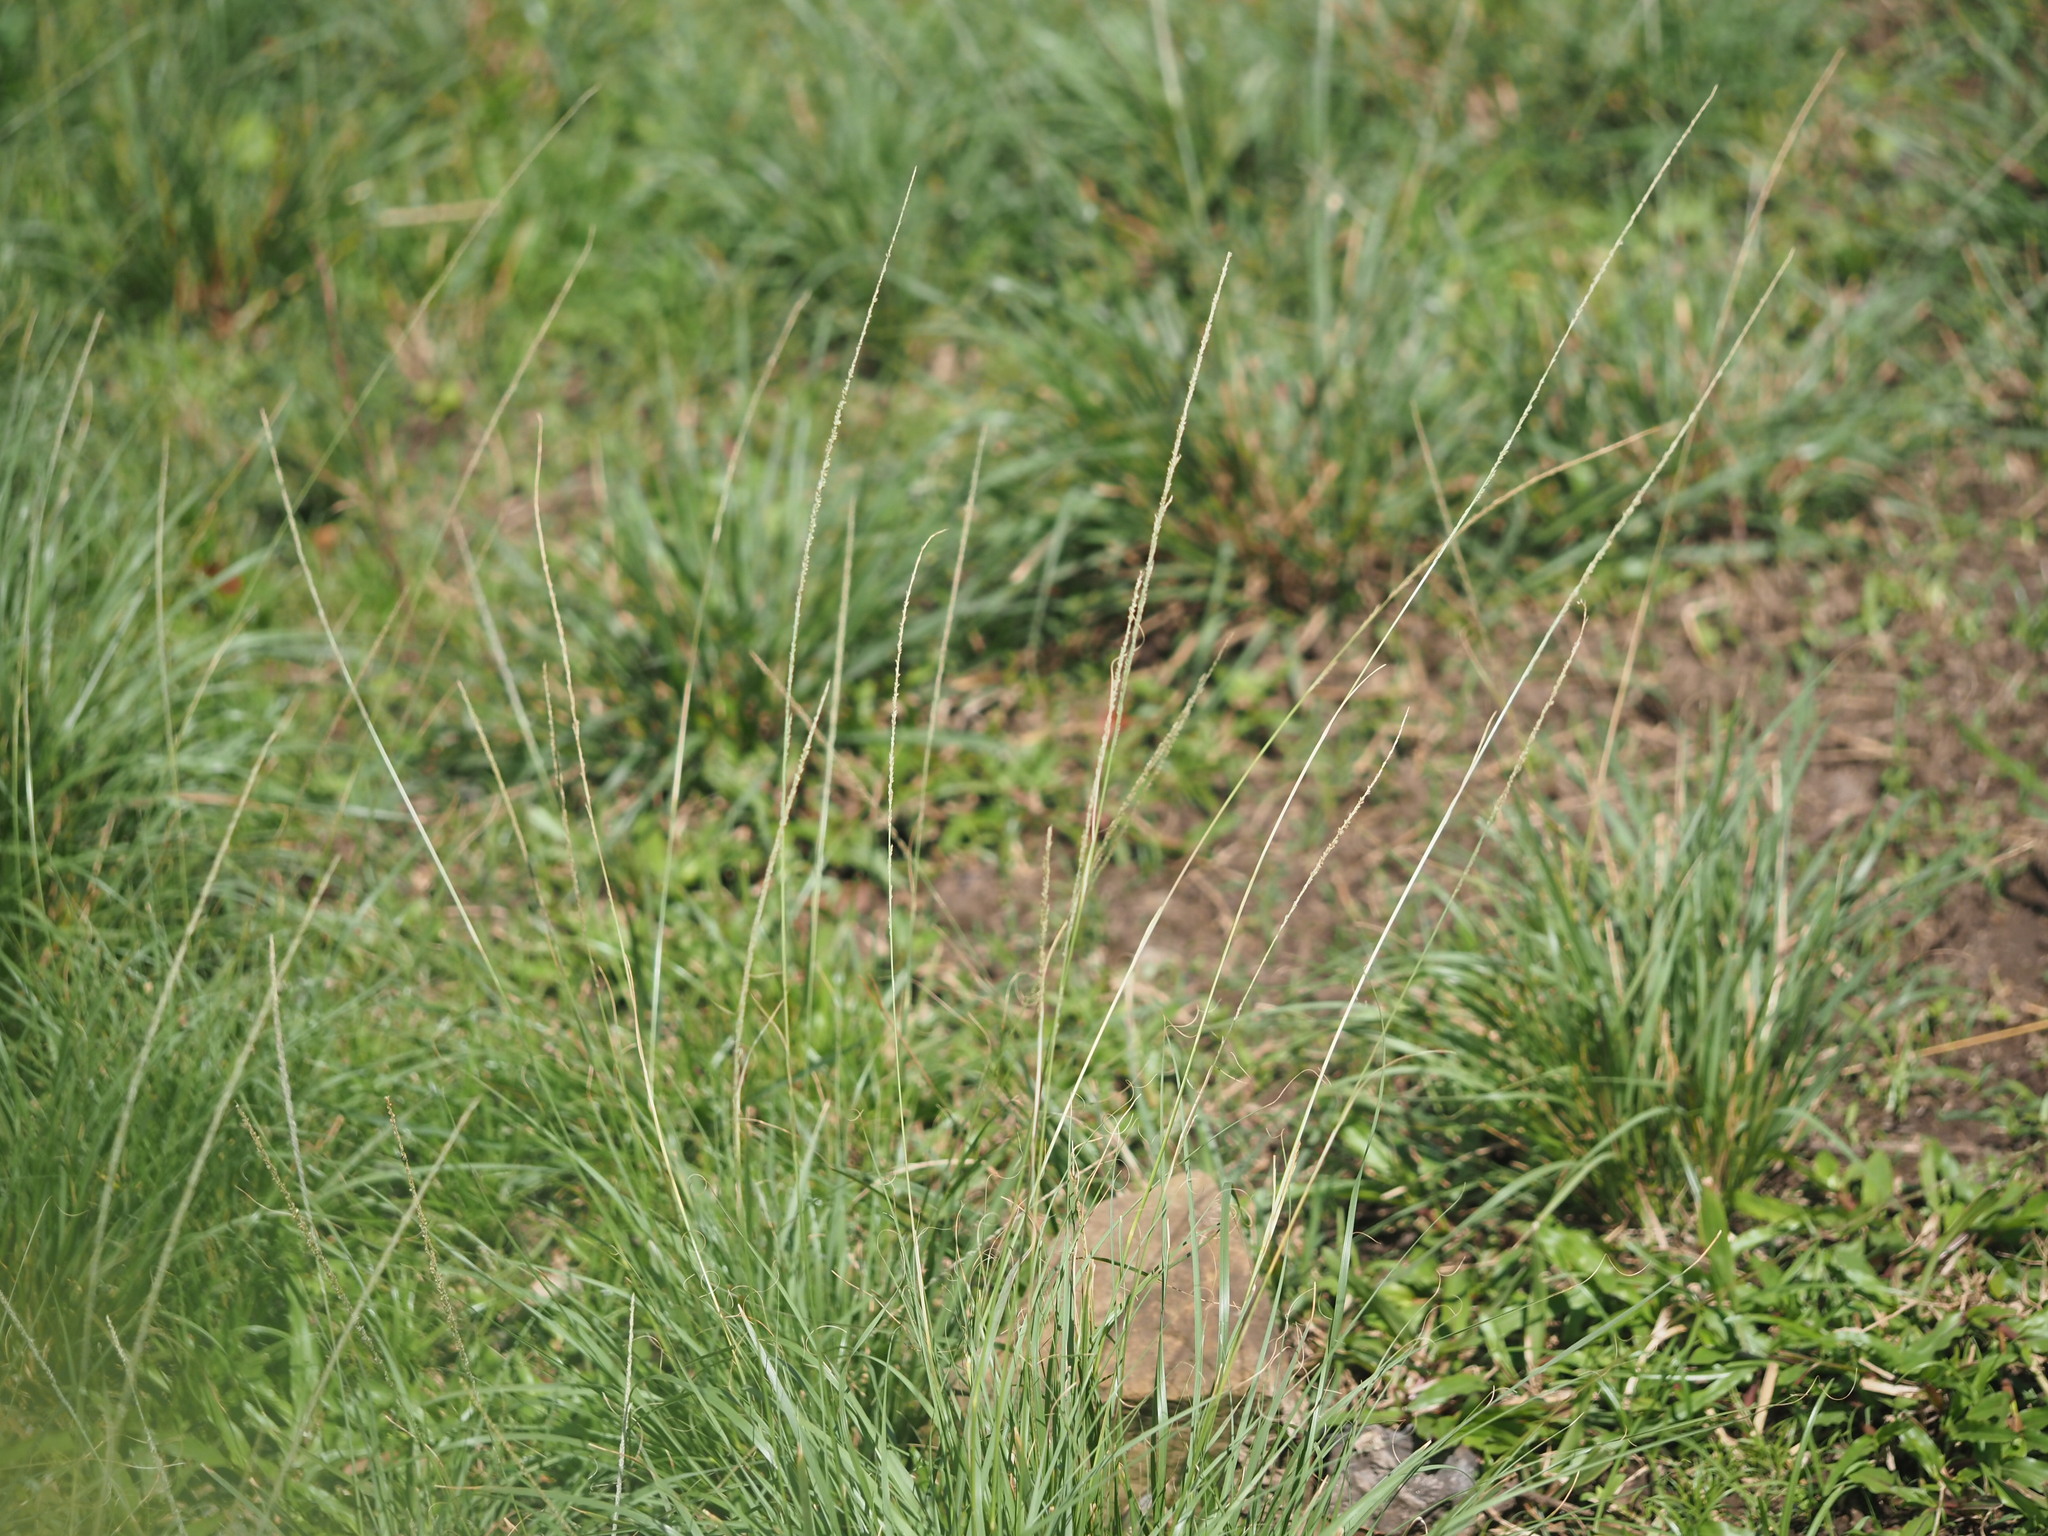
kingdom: Plantae
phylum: Tracheophyta
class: Liliopsida
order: Poales
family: Poaceae
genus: Sporobolus
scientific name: Sporobolus fertilis
